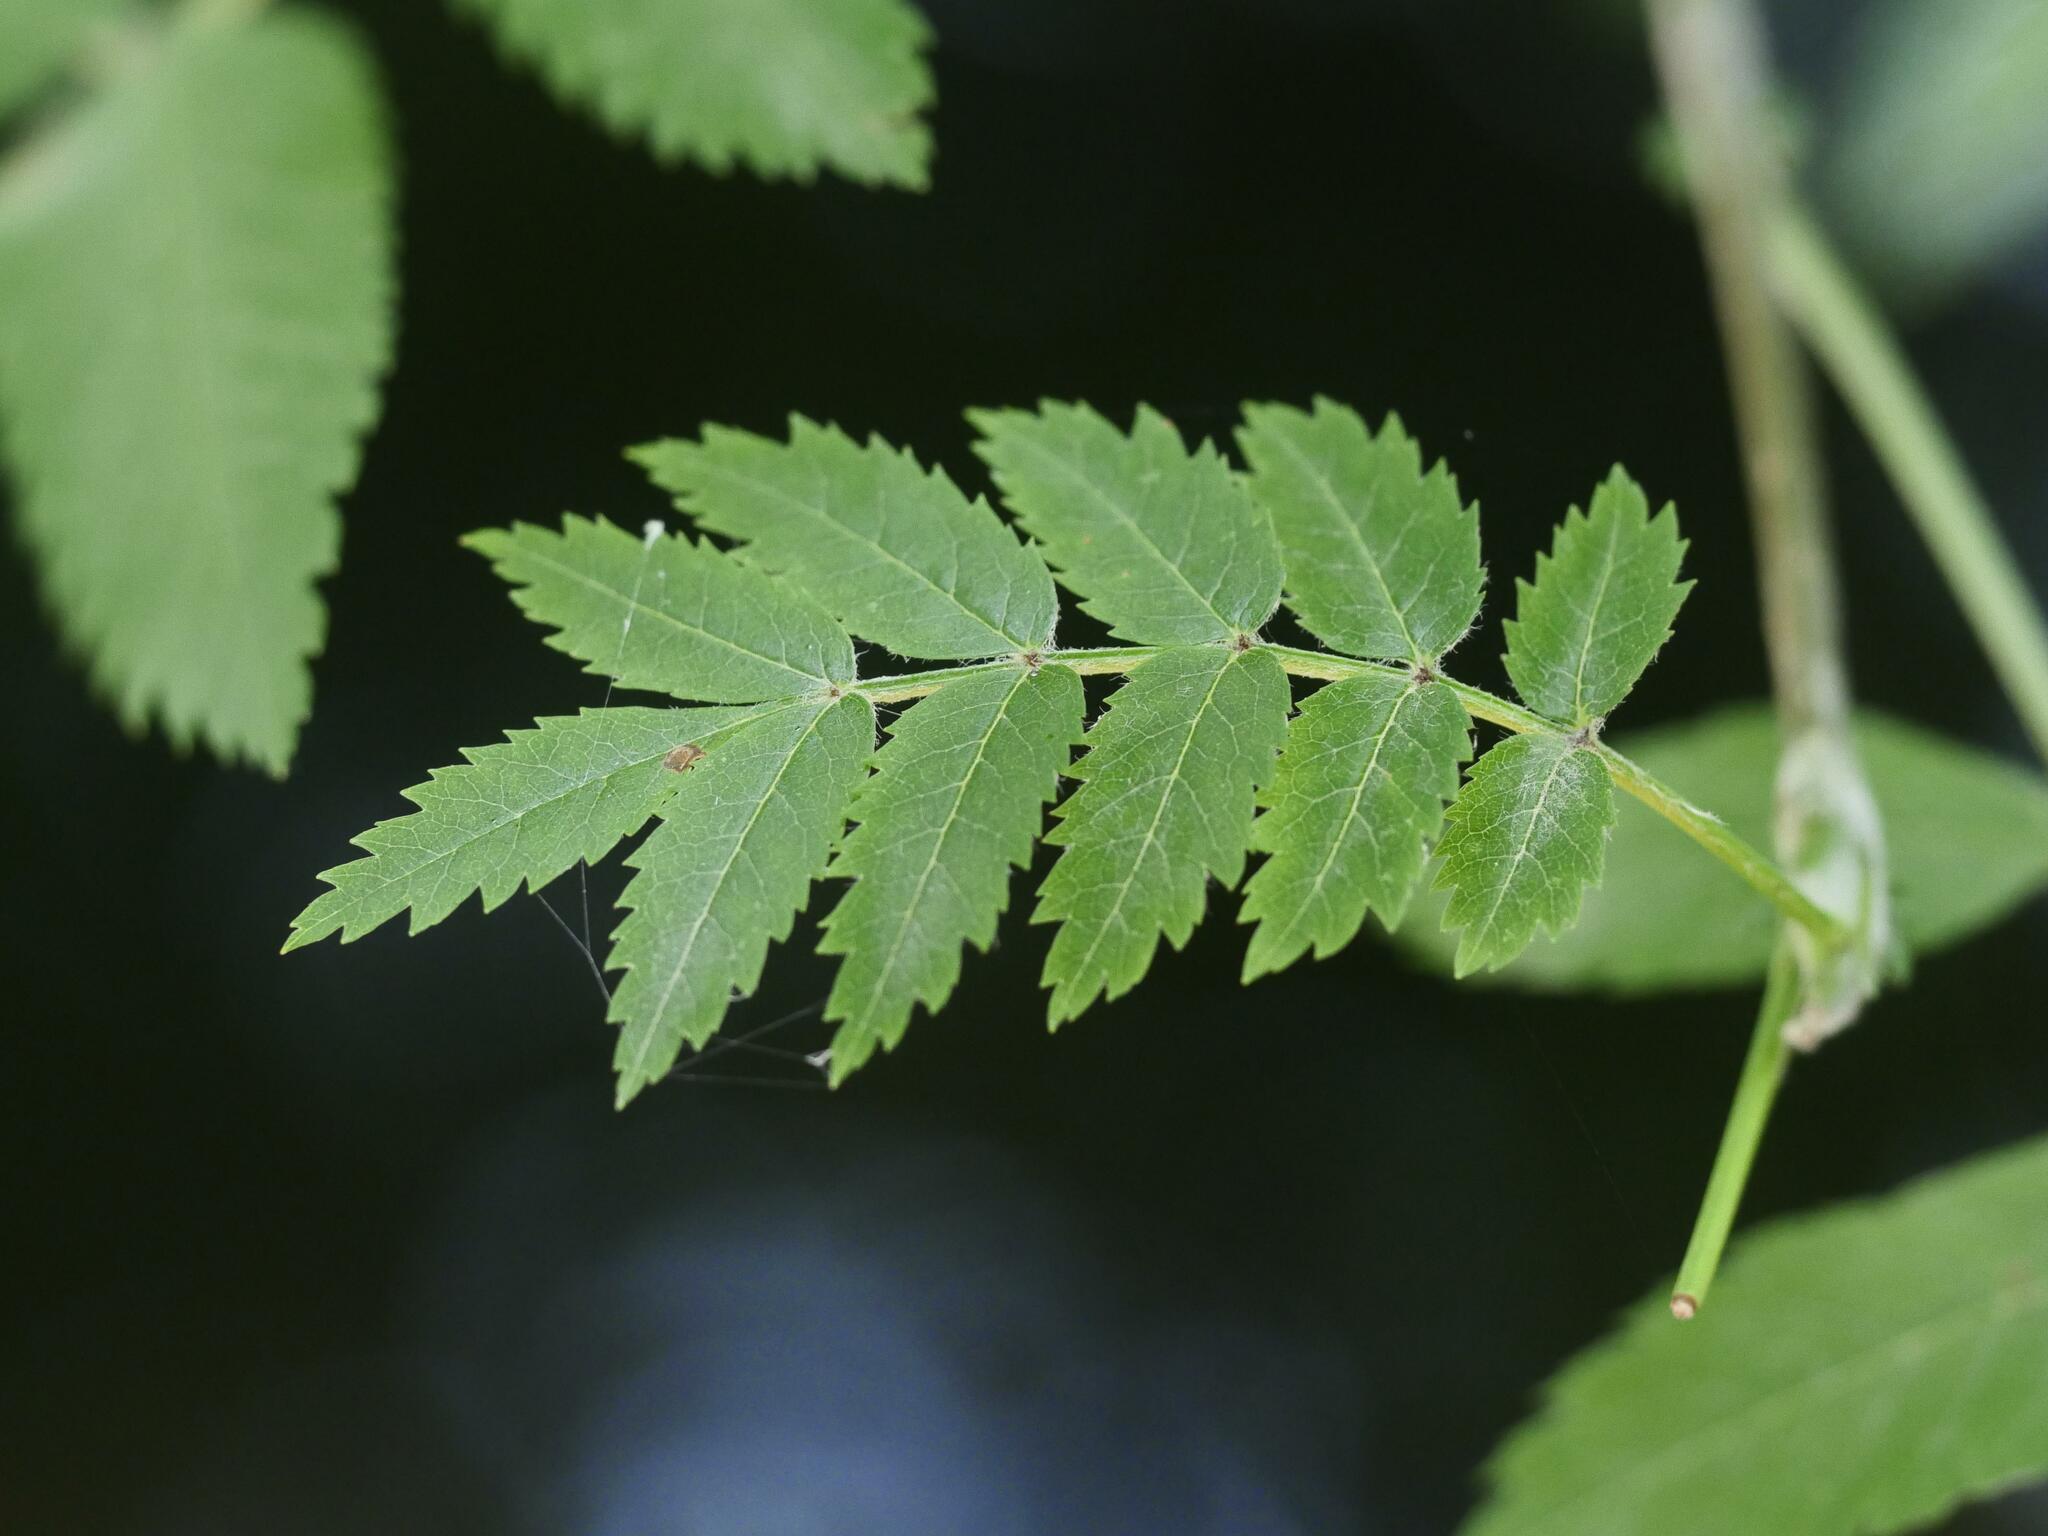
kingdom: Plantae
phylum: Tracheophyta
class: Magnoliopsida
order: Rosales
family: Rosaceae
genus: Sorbus
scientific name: Sorbus aucuparia
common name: Rowan
